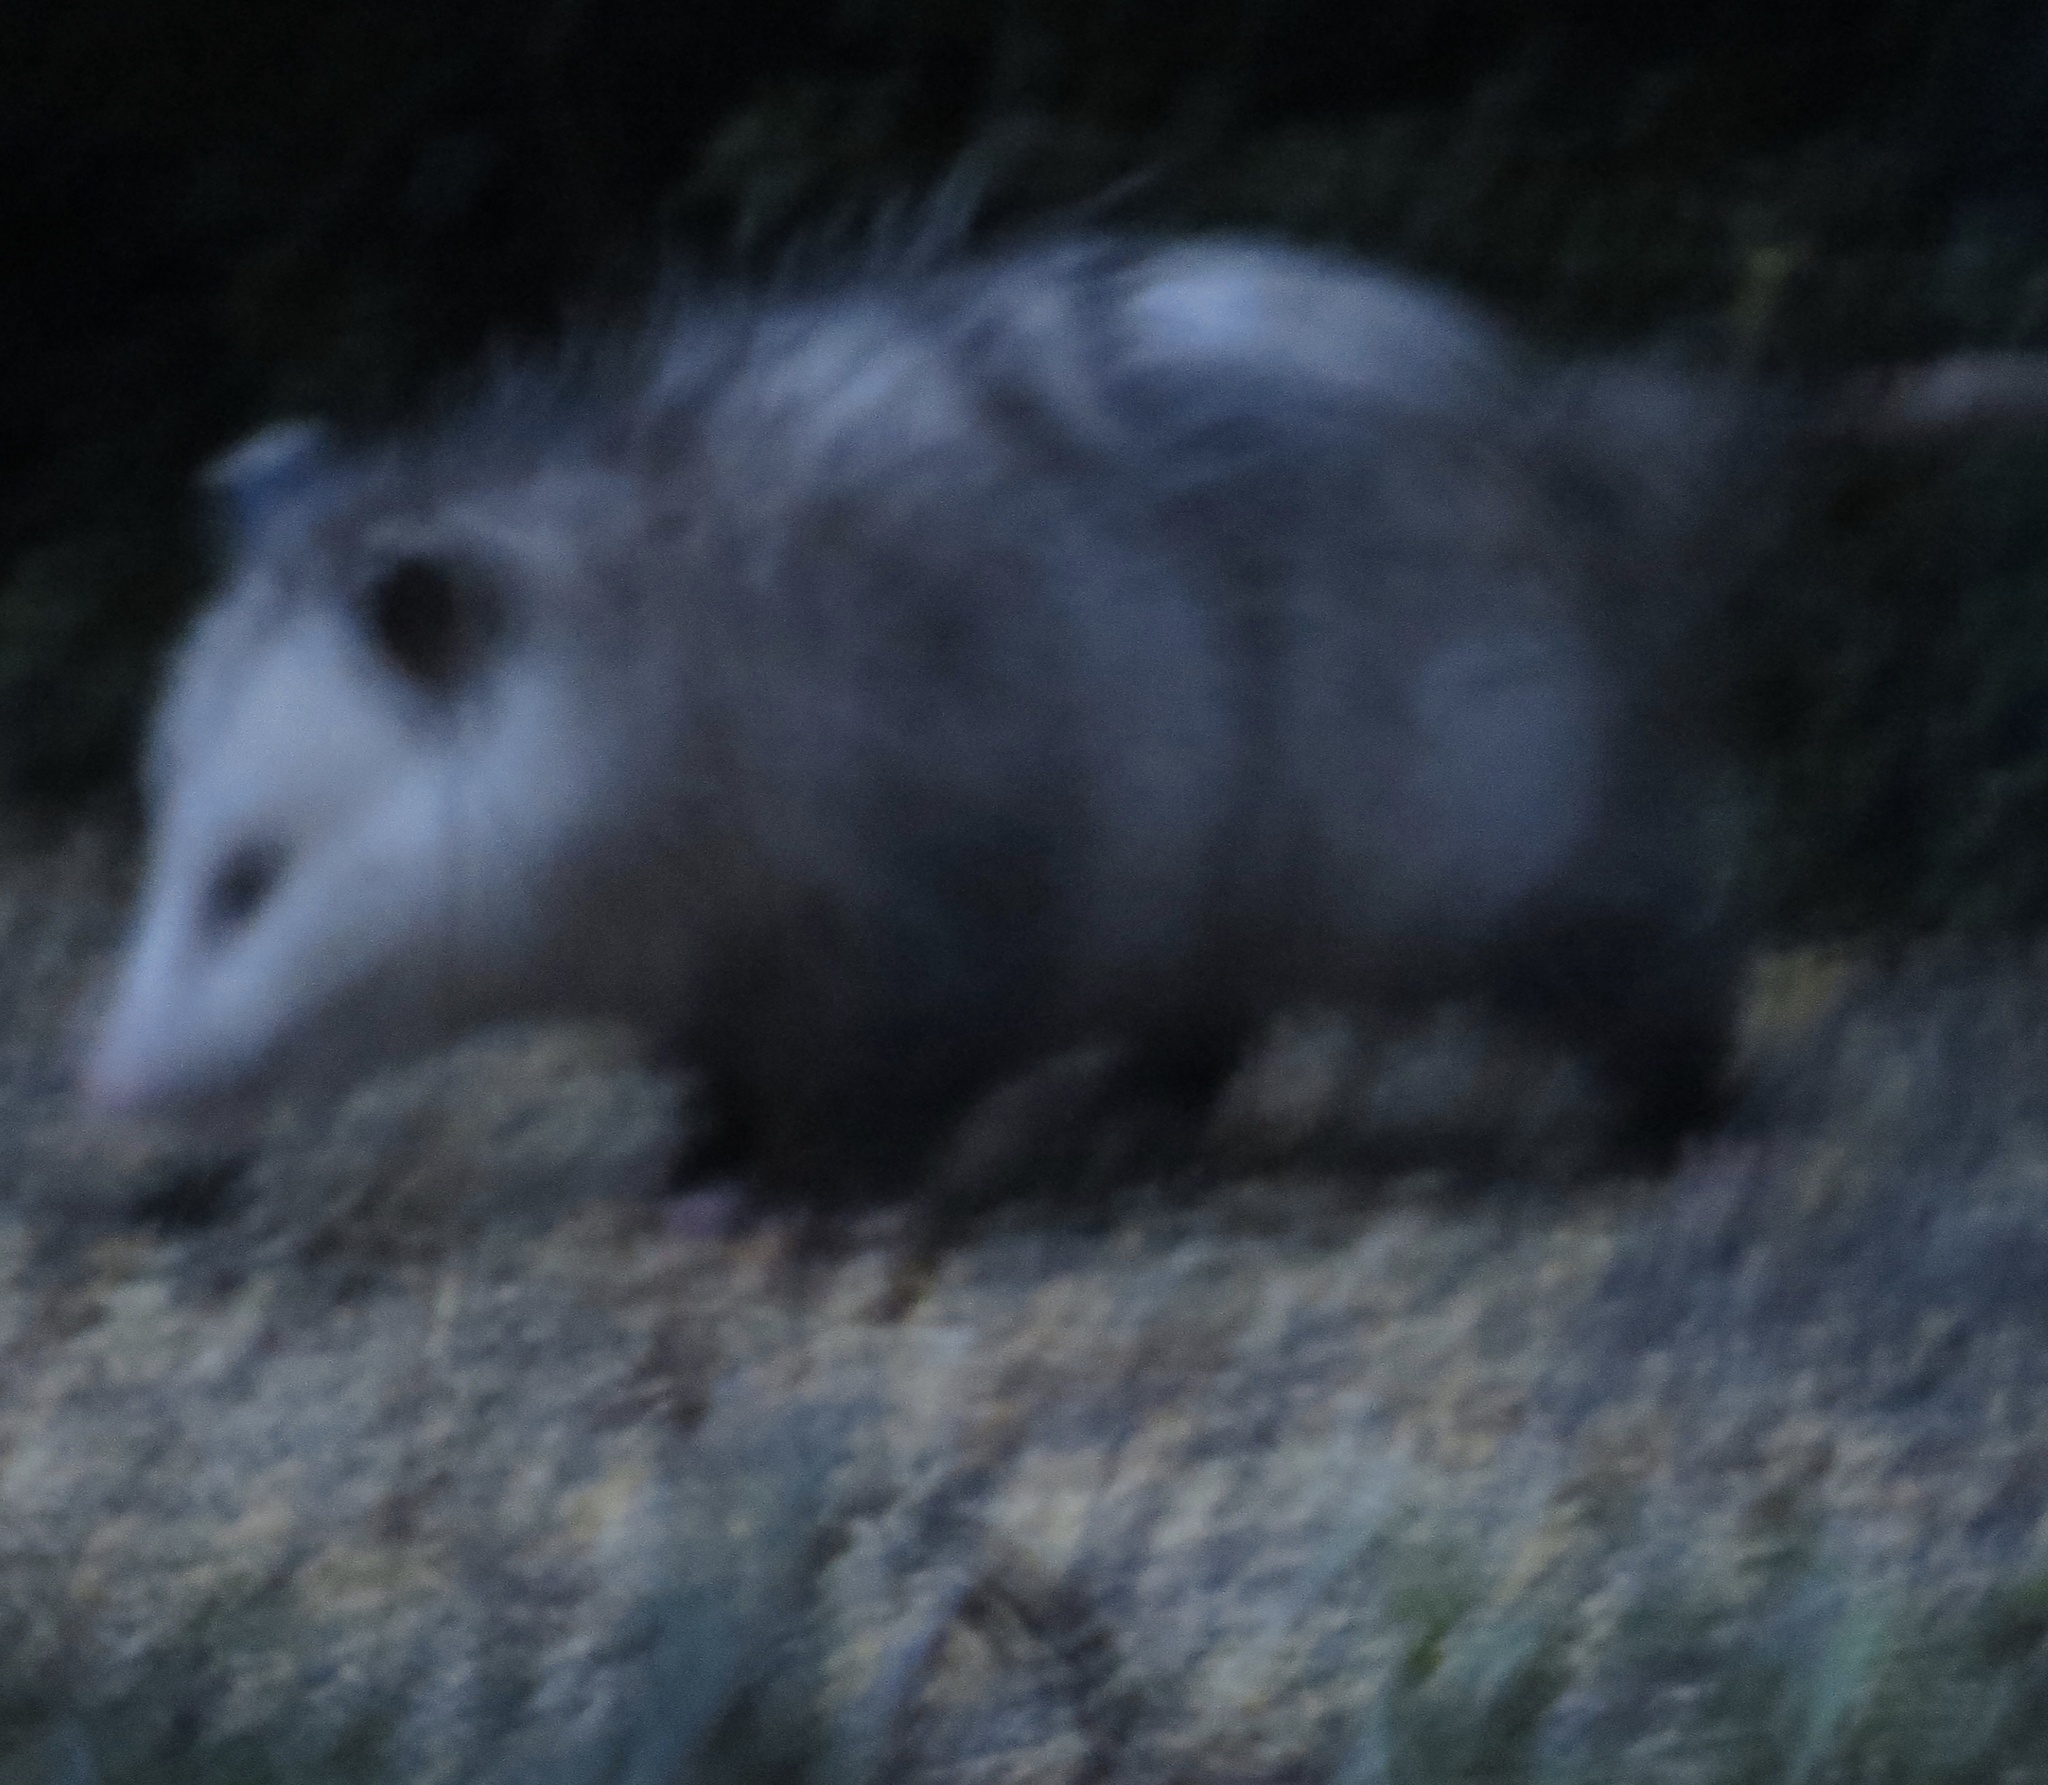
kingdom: Animalia
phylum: Chordata
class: Mammalia
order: Didelphimorphia
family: Didelphidae
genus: Didelphis
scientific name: Didelphis virginiana
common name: Virginia opossum
